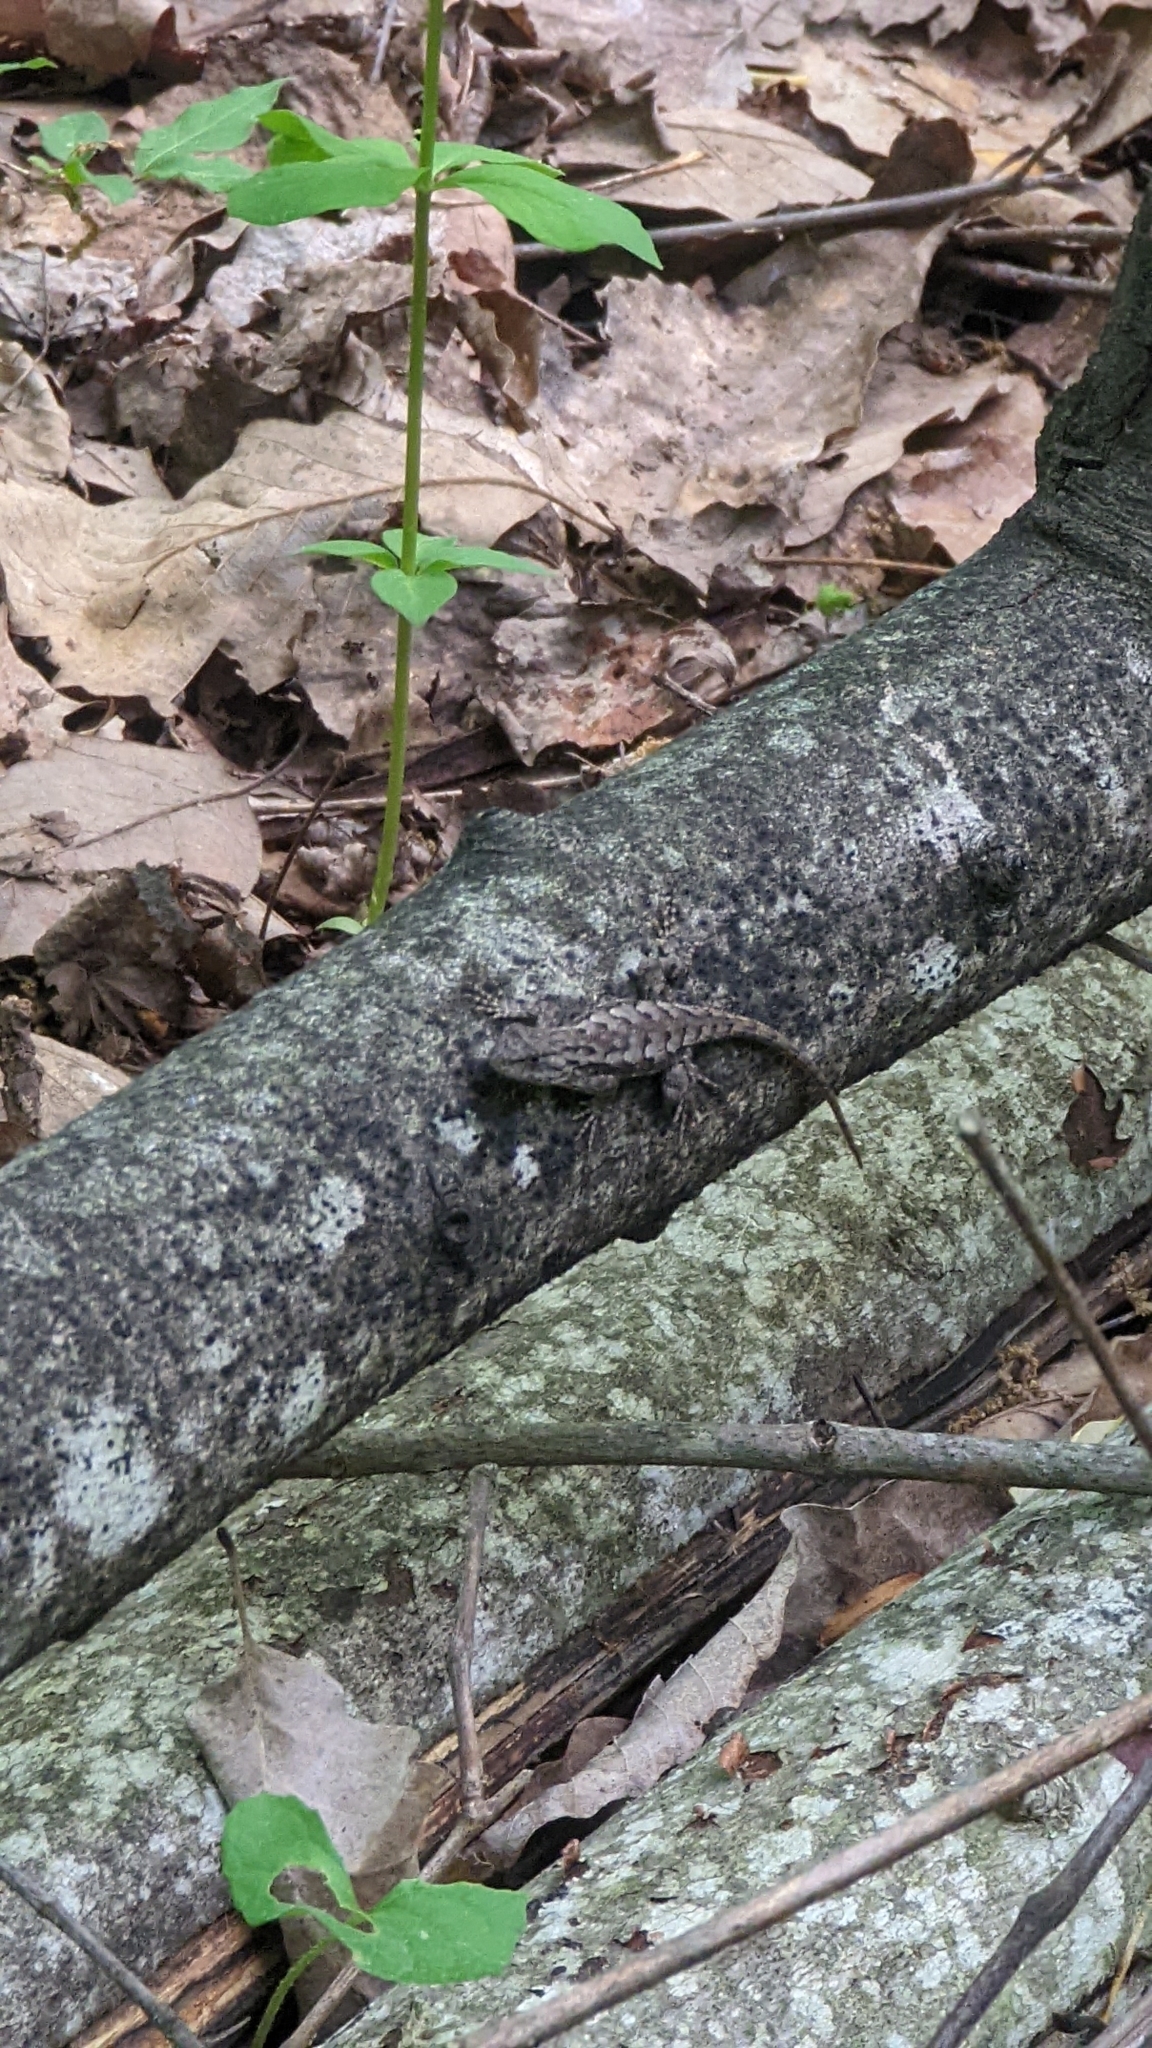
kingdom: Animalia
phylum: Chordata
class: Squamata
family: Phrynosomatidae
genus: Sceloporus
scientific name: Sceloporus undulatus
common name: Eastern fence lizard
